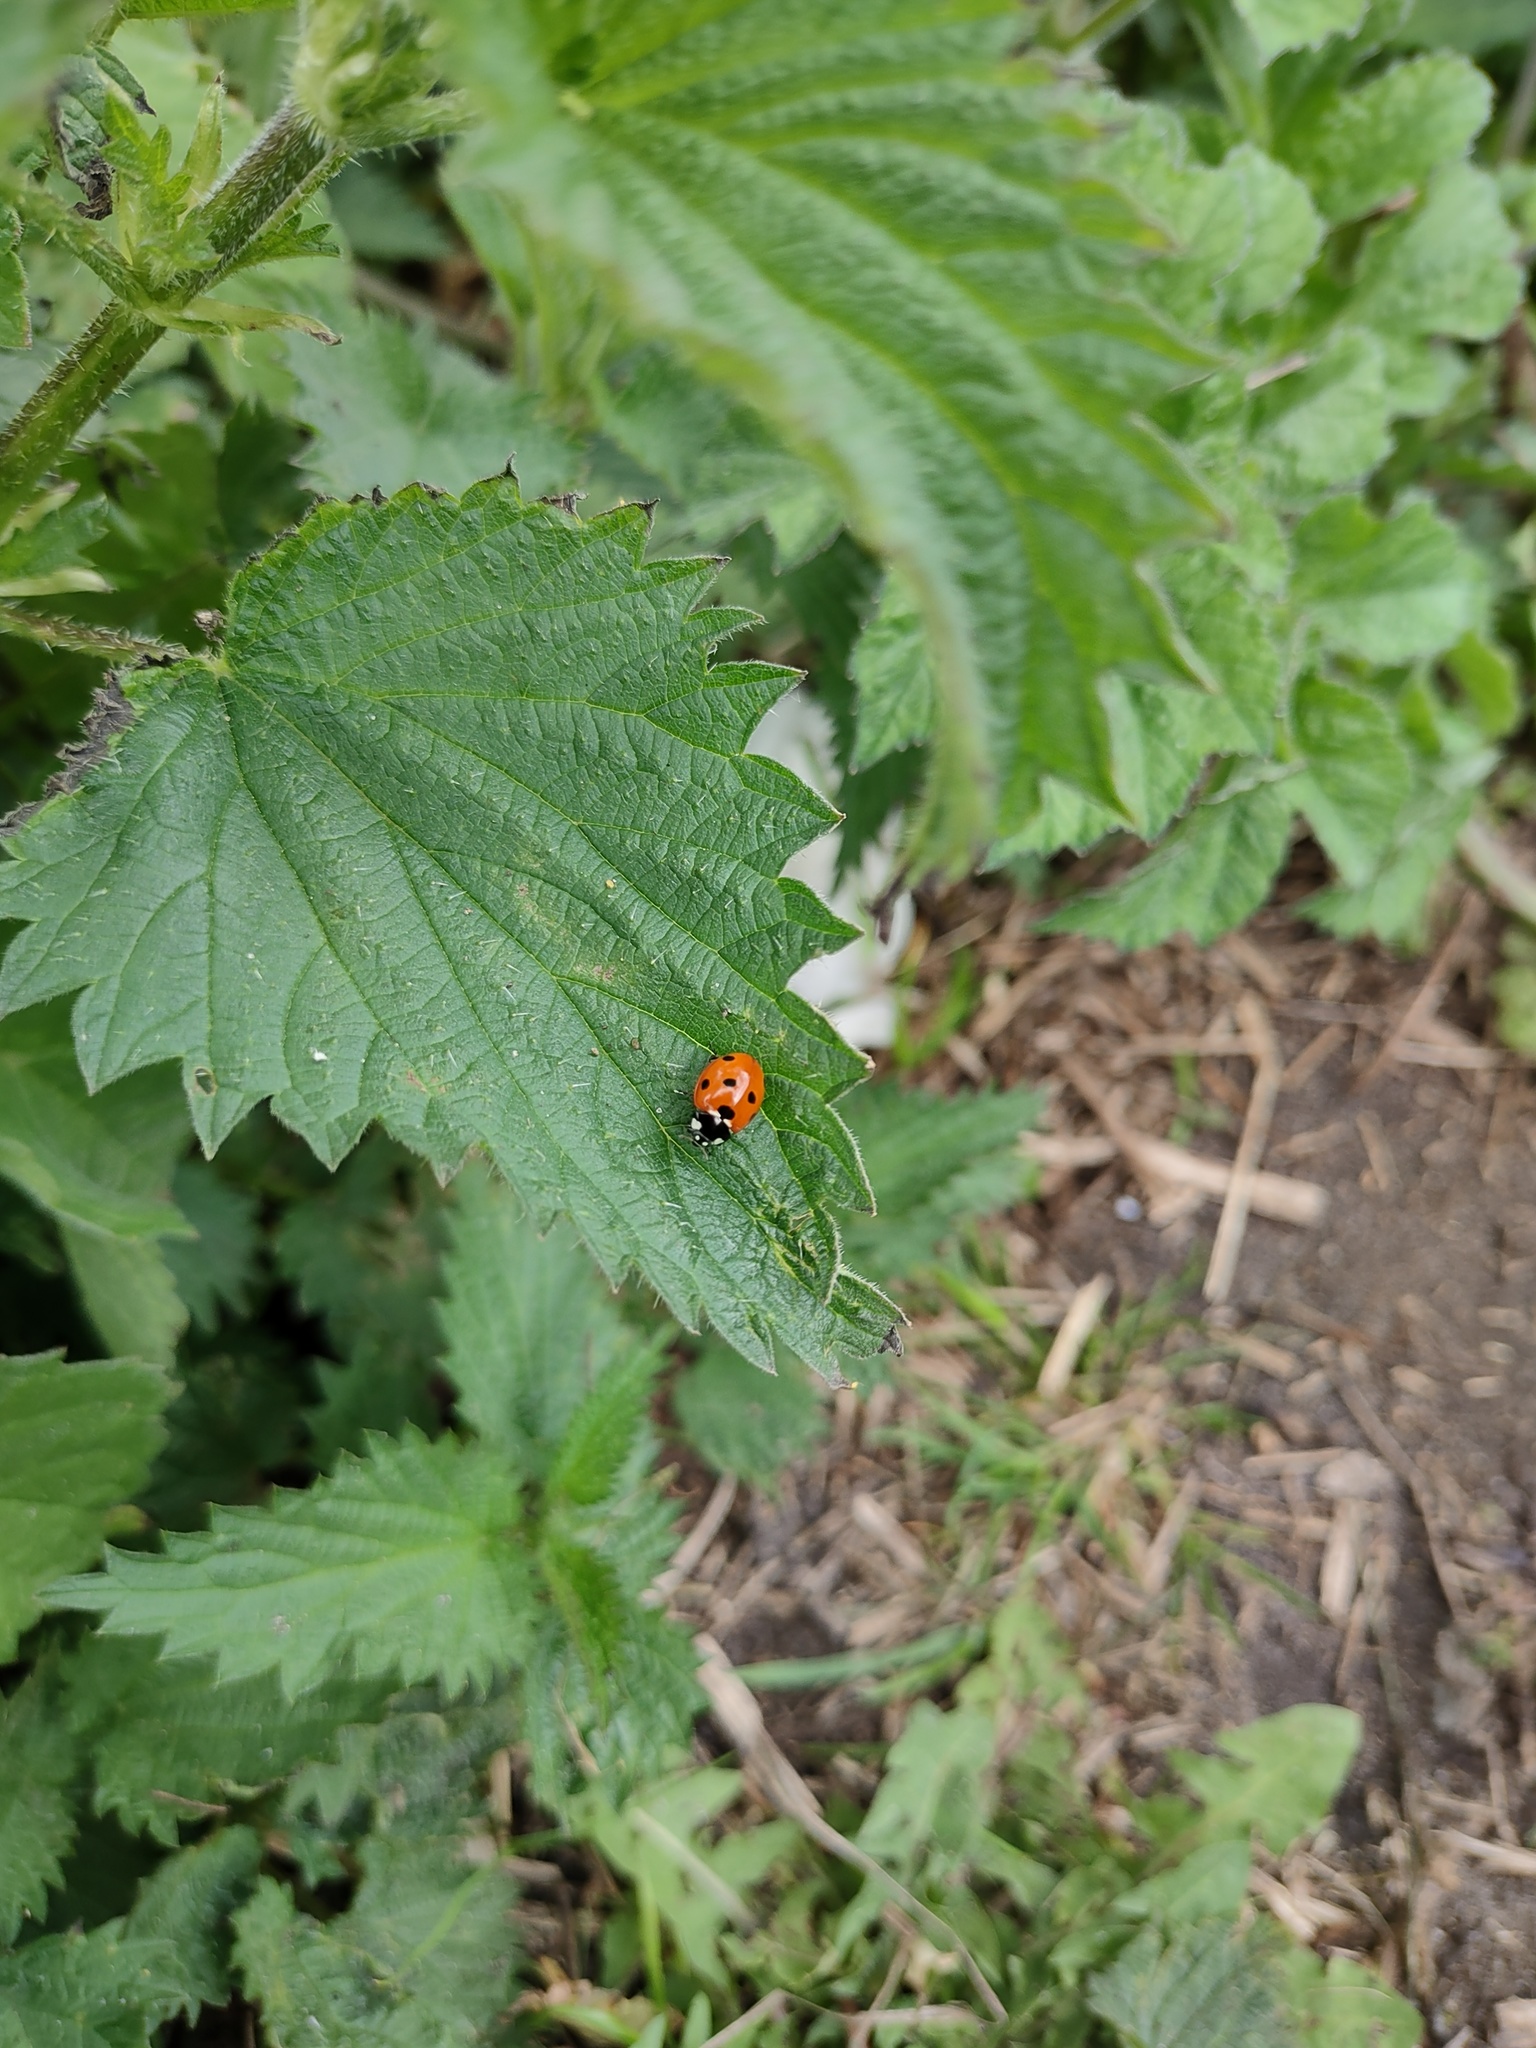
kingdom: Animalia
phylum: Arthropoda
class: Insecta
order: Coleoptera
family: Coccinellidae
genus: Coccinella
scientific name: Coccinella septempunctata
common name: Sevenspotted lady beetle
